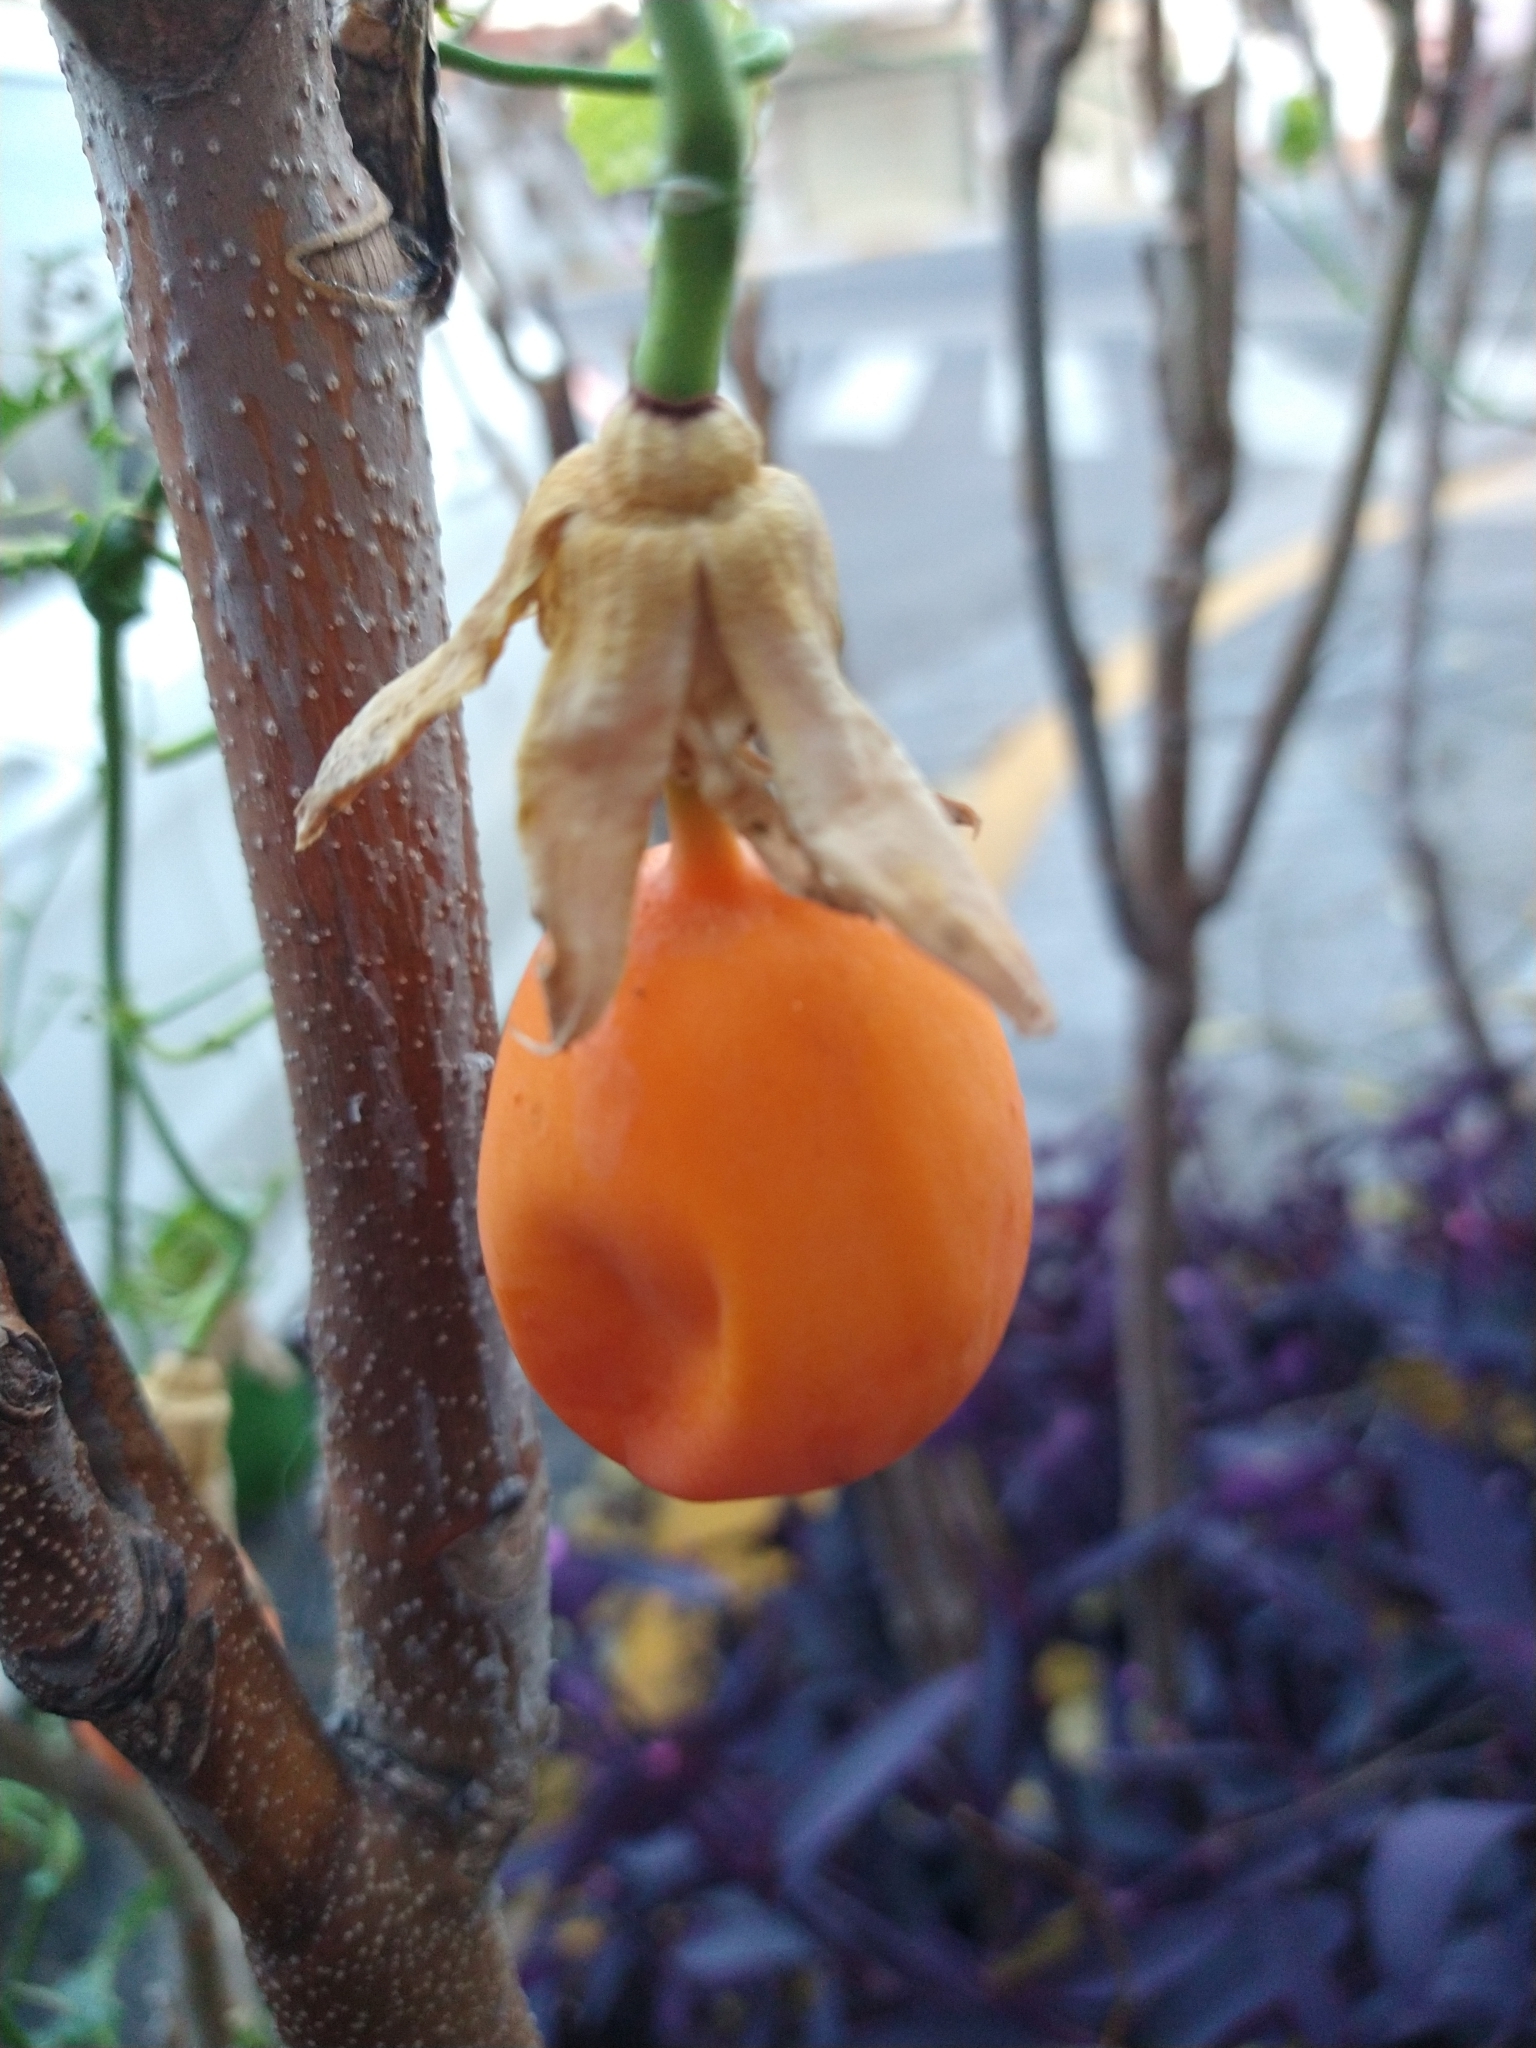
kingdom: Plantae
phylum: Tracheophyta
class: Magnoliopsida
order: Malpighiales
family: Passifloraceae
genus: Passiflora
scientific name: Passiflora caerulea
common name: Blue passionflower
